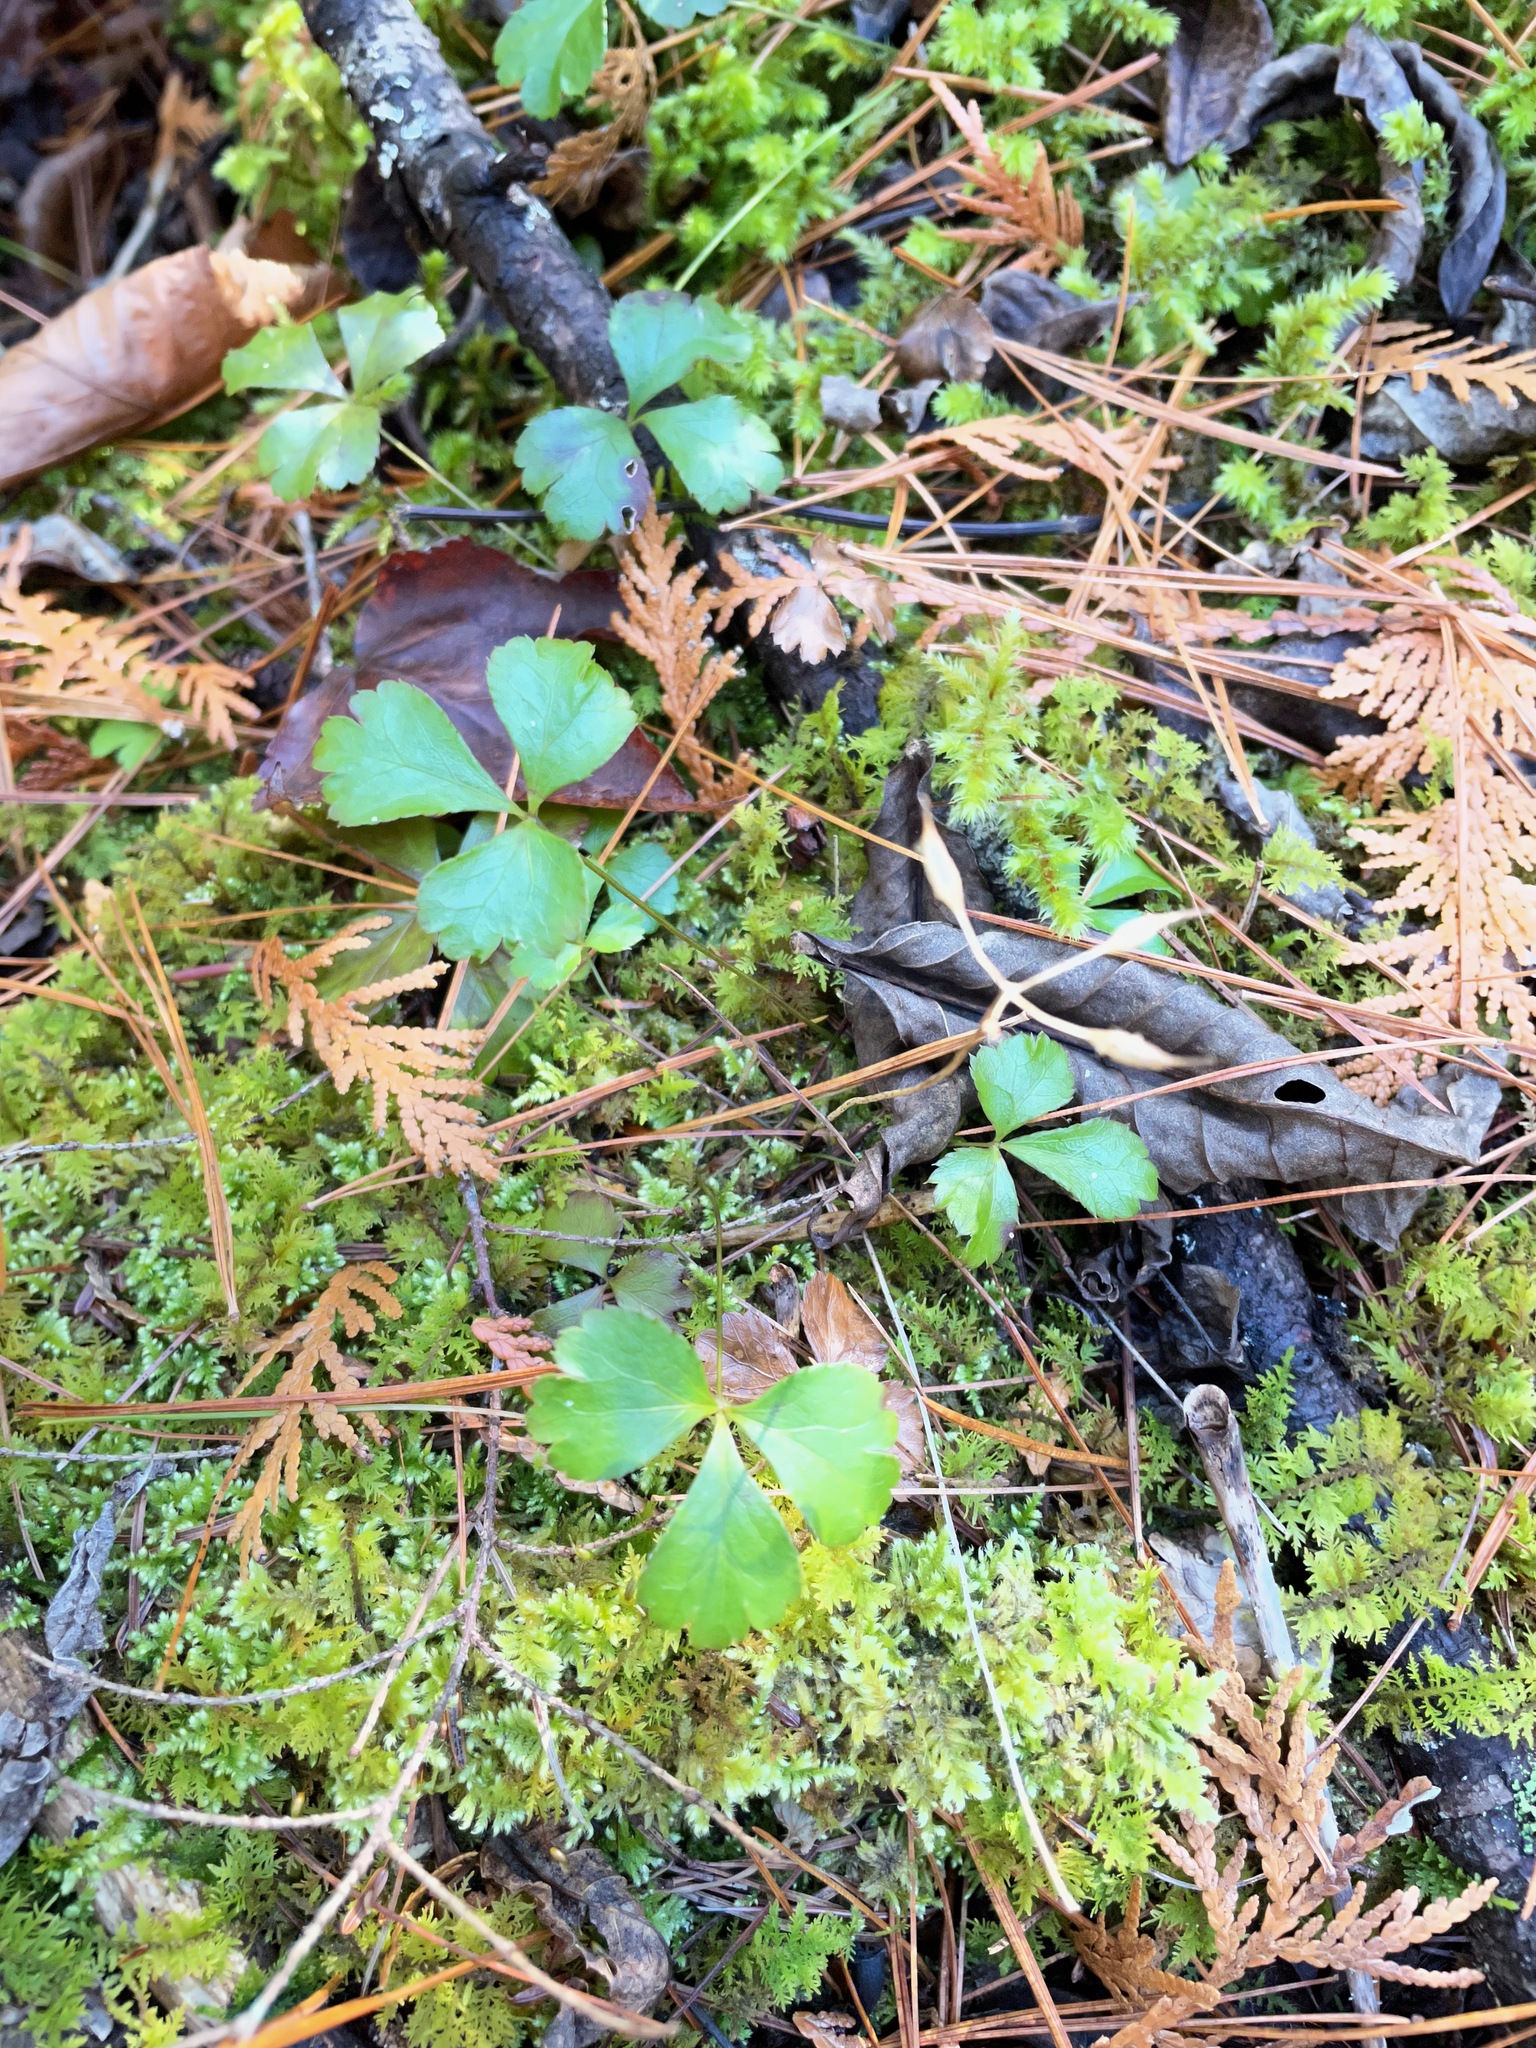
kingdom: Plantae
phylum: Tracheophyta
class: Magnoliopsida
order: Ranunculales
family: Ranunculaceae
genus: Coptis
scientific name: Coptis trifolia
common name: Canker-root
